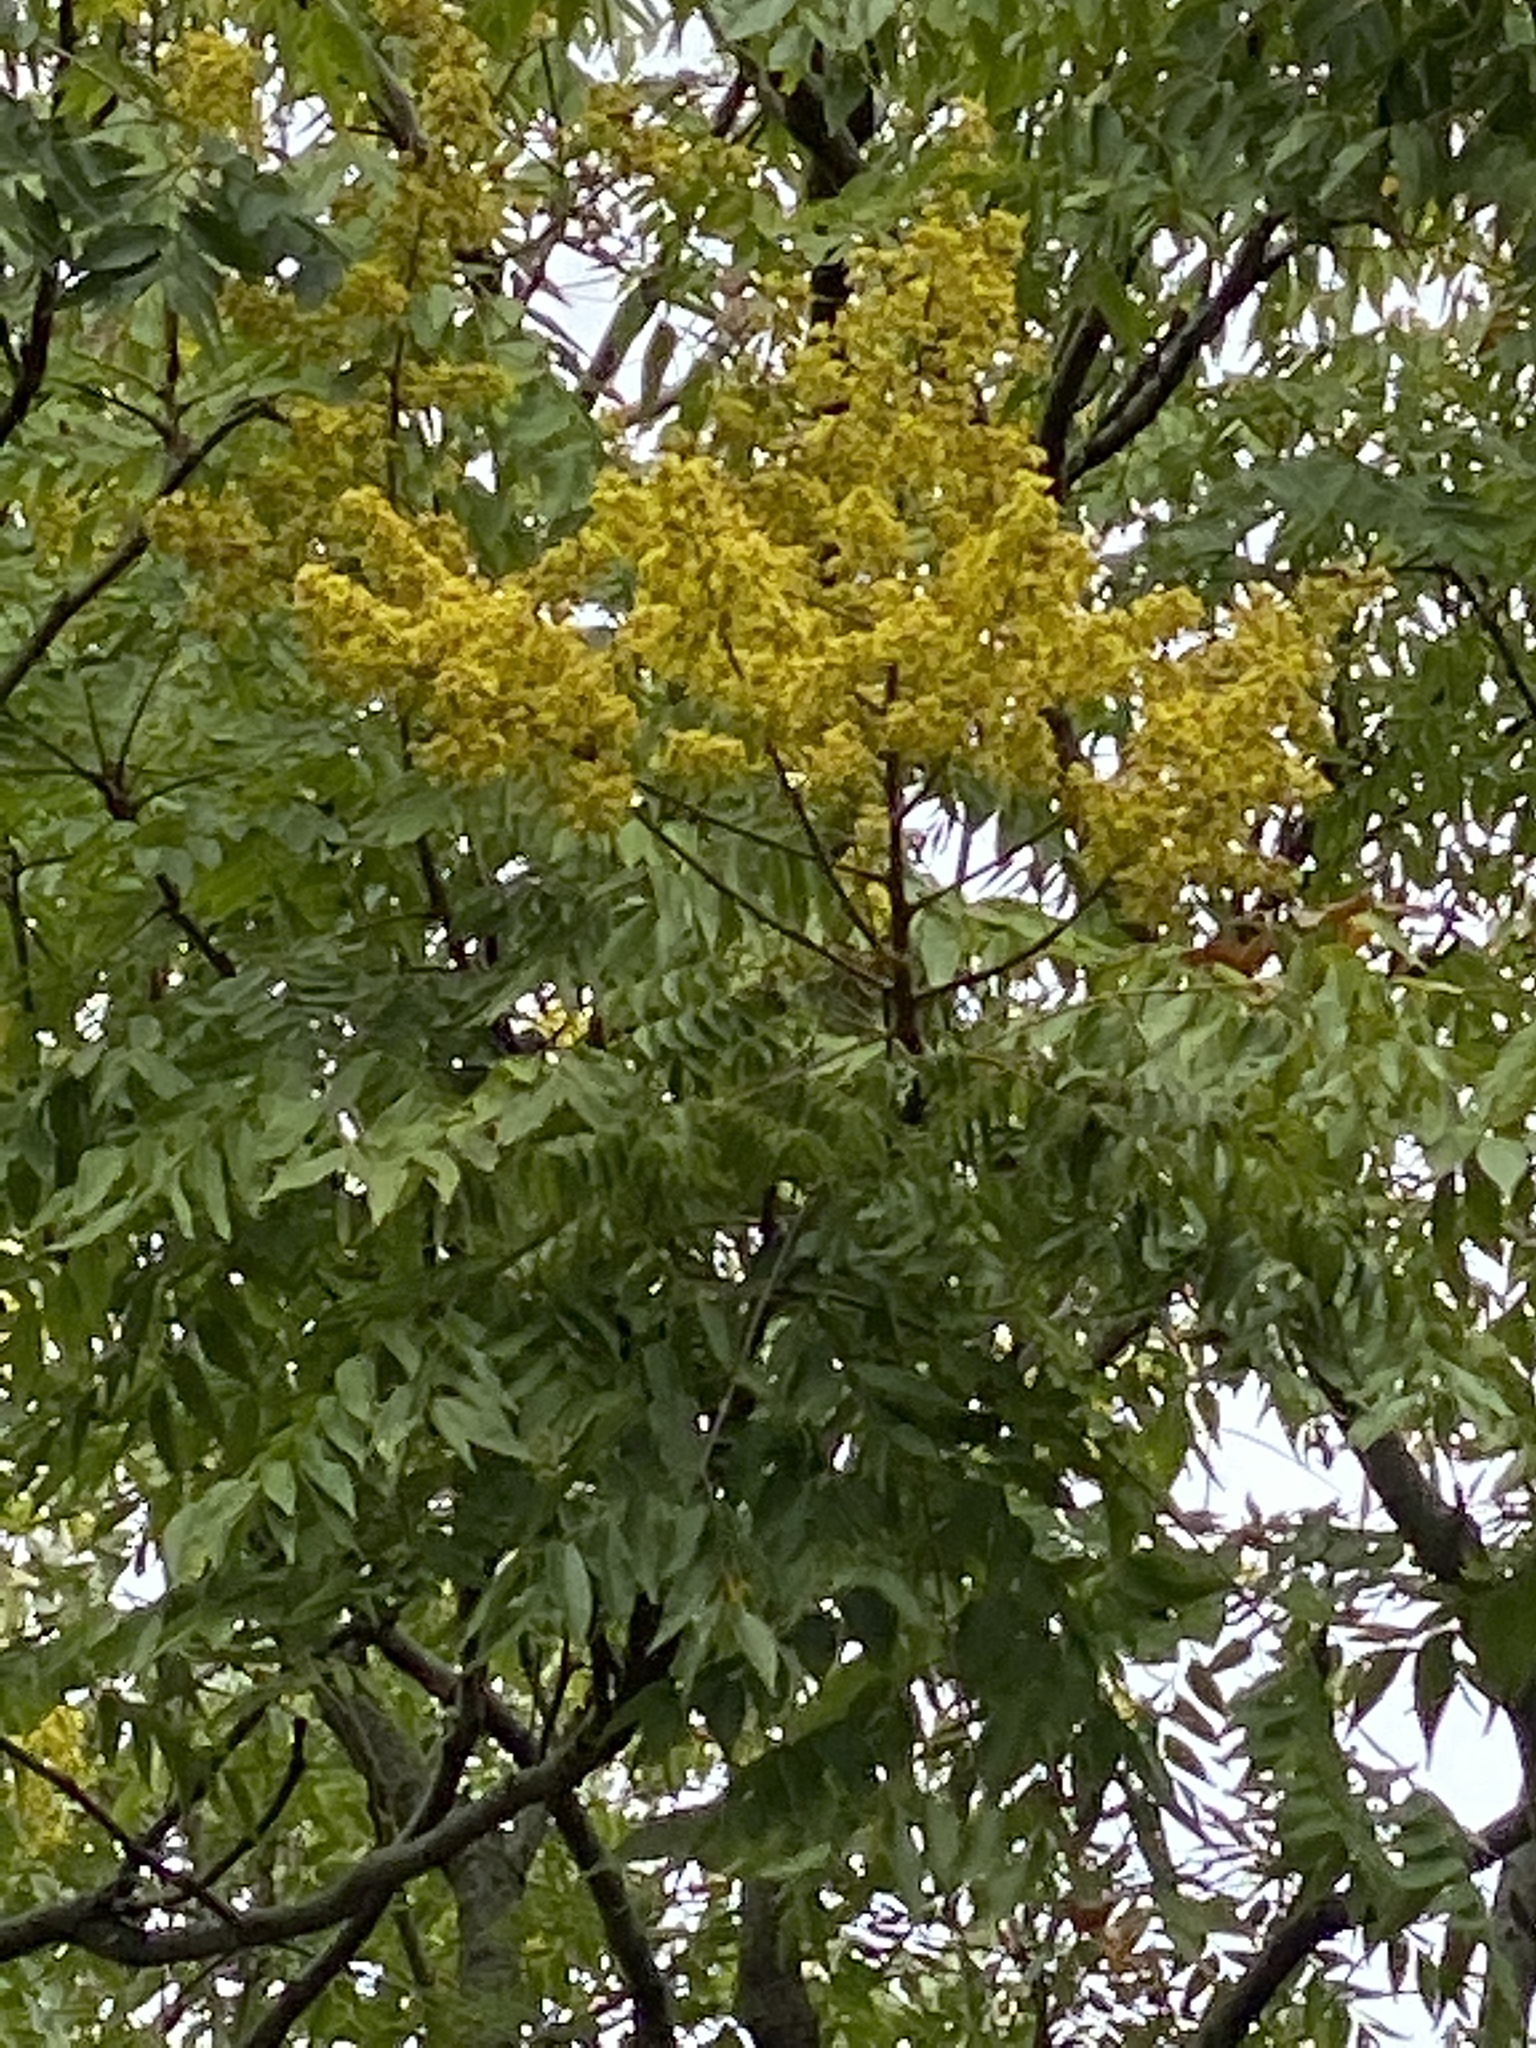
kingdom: Plantae
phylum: Tracheophyta
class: Magnoliopsida
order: Sapindales
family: Sapindaceae
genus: Koelreuteria
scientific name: Koelreuteria elegans
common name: Chinese flame tree
